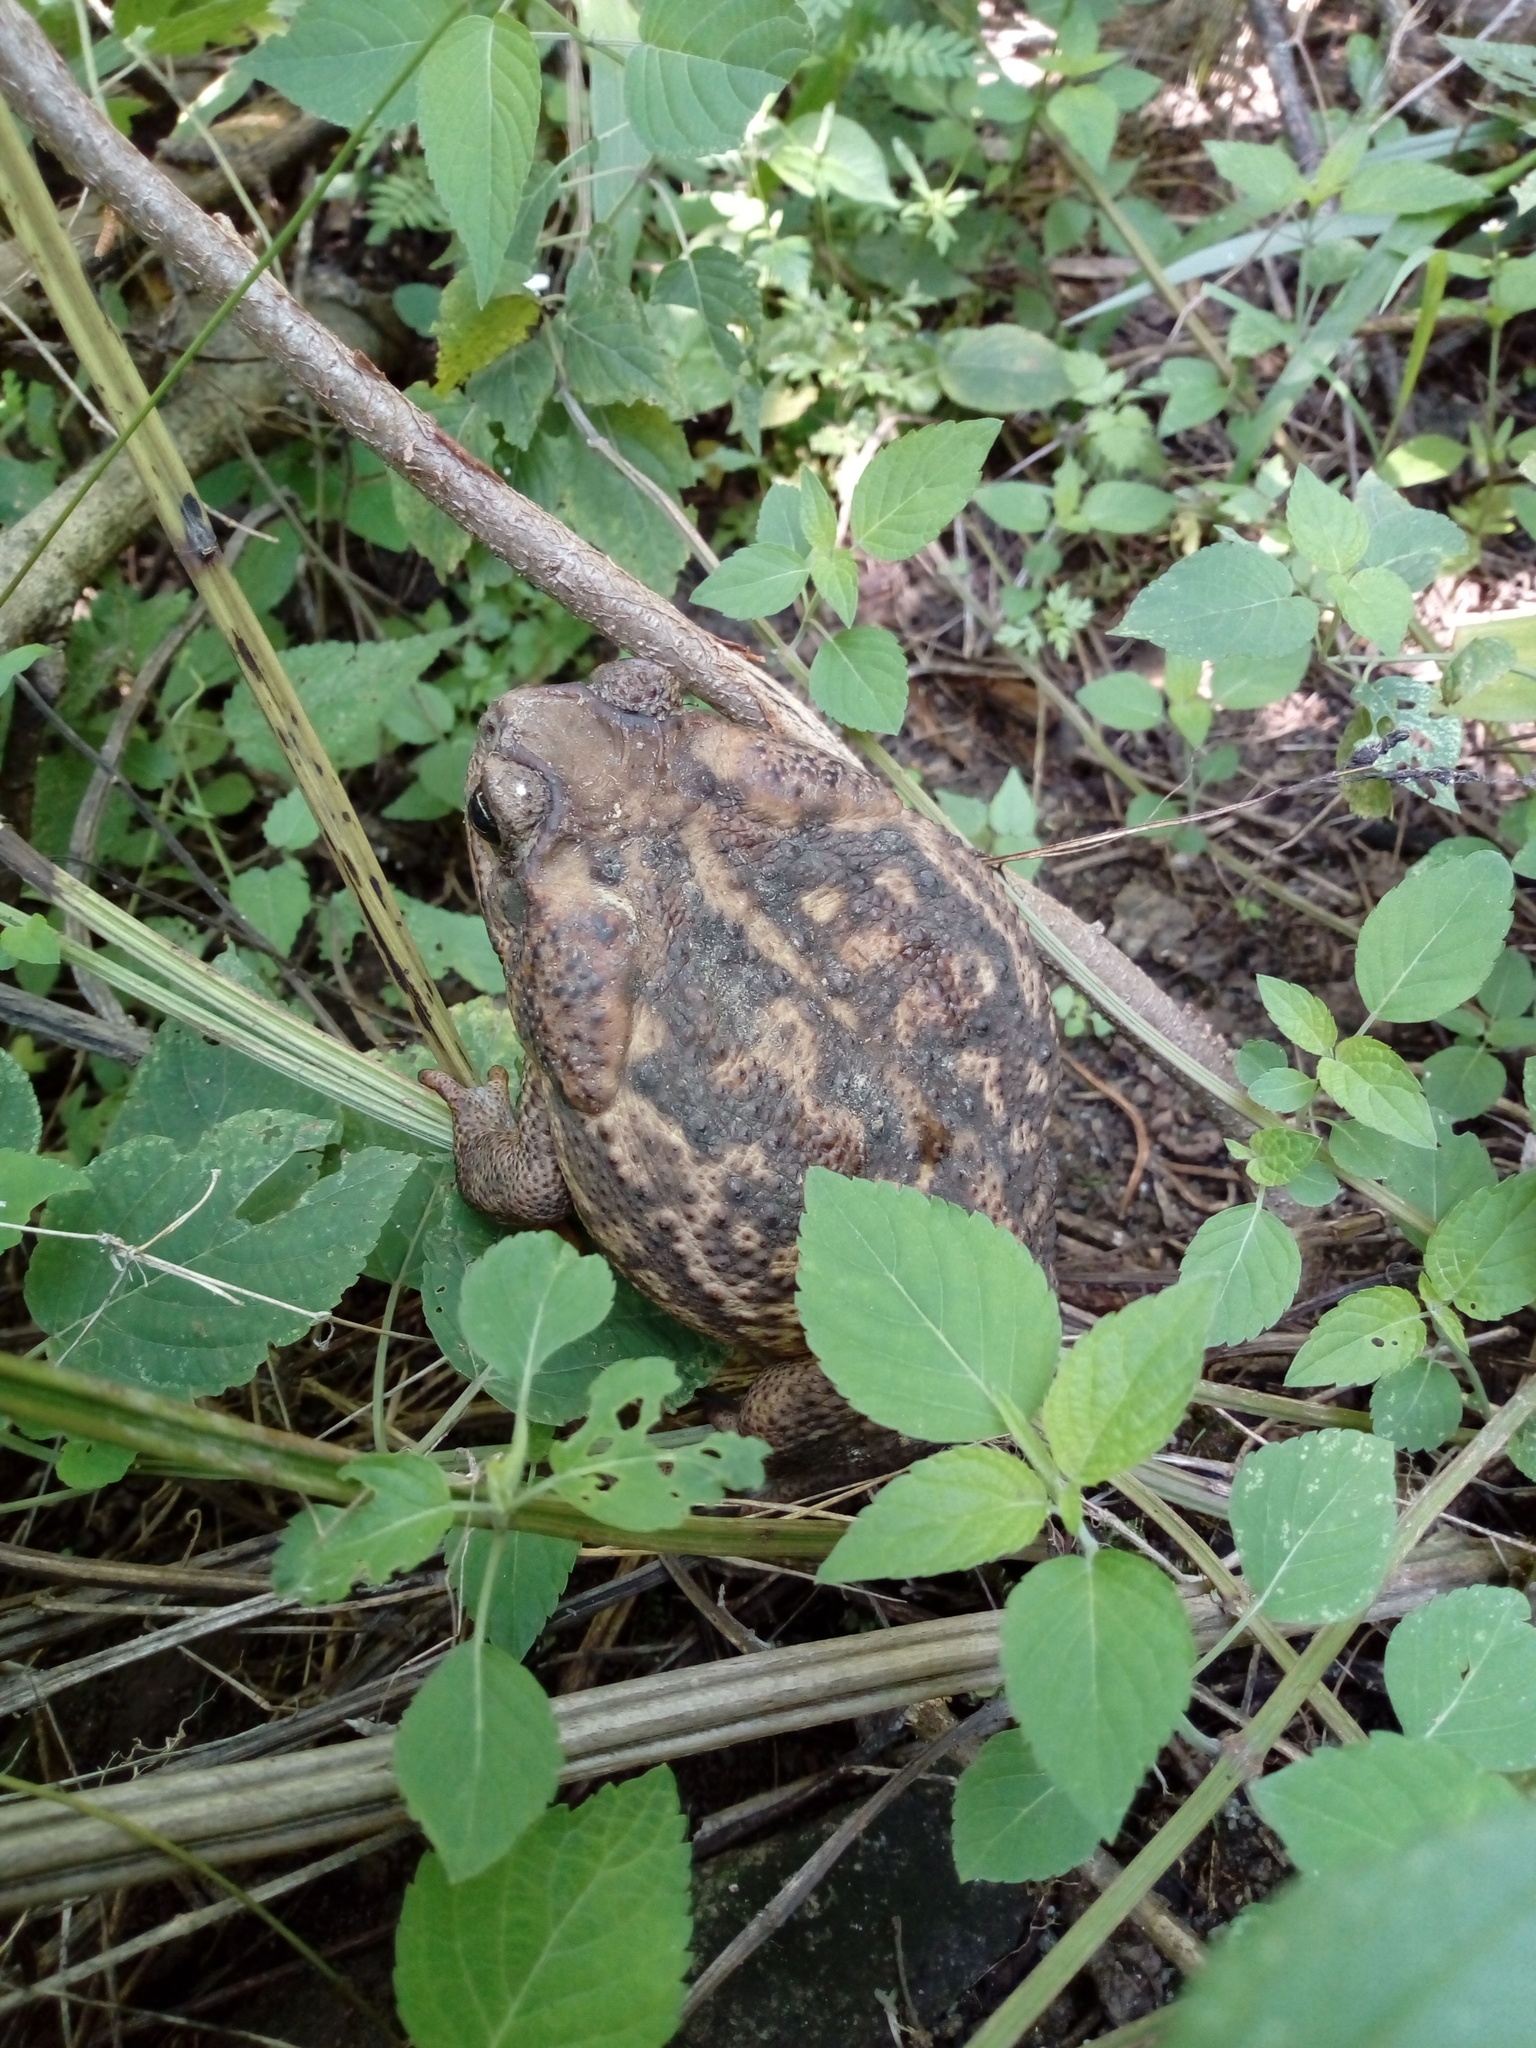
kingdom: Animalia
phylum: Chordata
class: Amphibia
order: Anura
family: Bufonidae
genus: Rhinella
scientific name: Rhinella horribilis
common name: Mesoamerican cane toad
